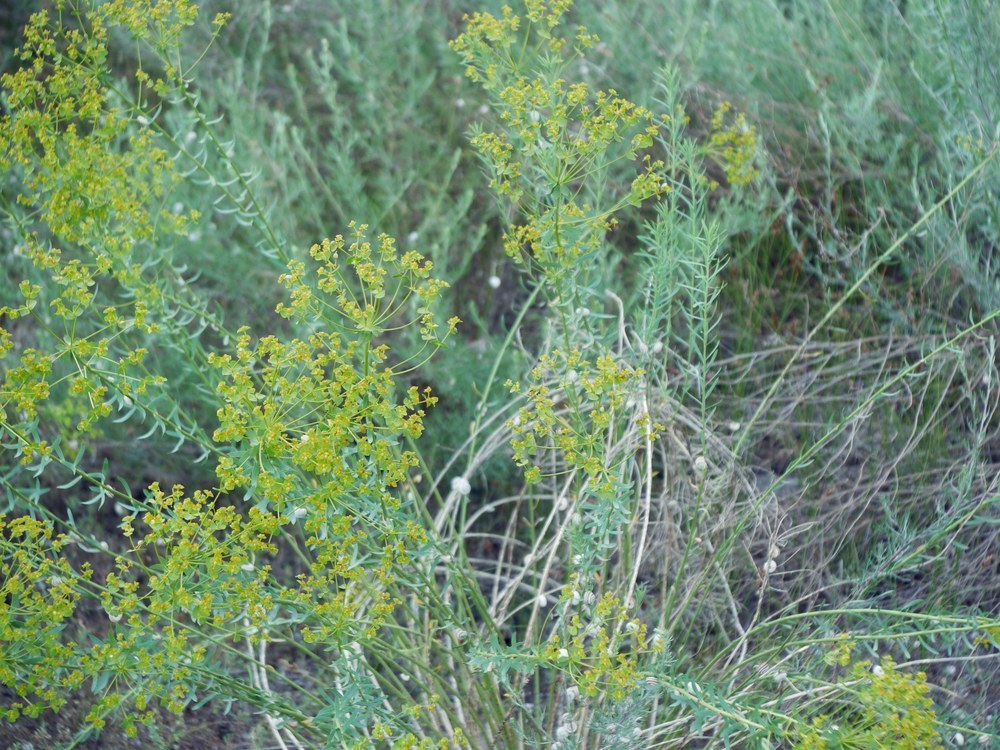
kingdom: Plantae
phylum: Tracheophyta
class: Magnoliopsida
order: Malpighiales
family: Euphorbiaceae
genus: Euphorbia
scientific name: Euphorbia seguieriana
